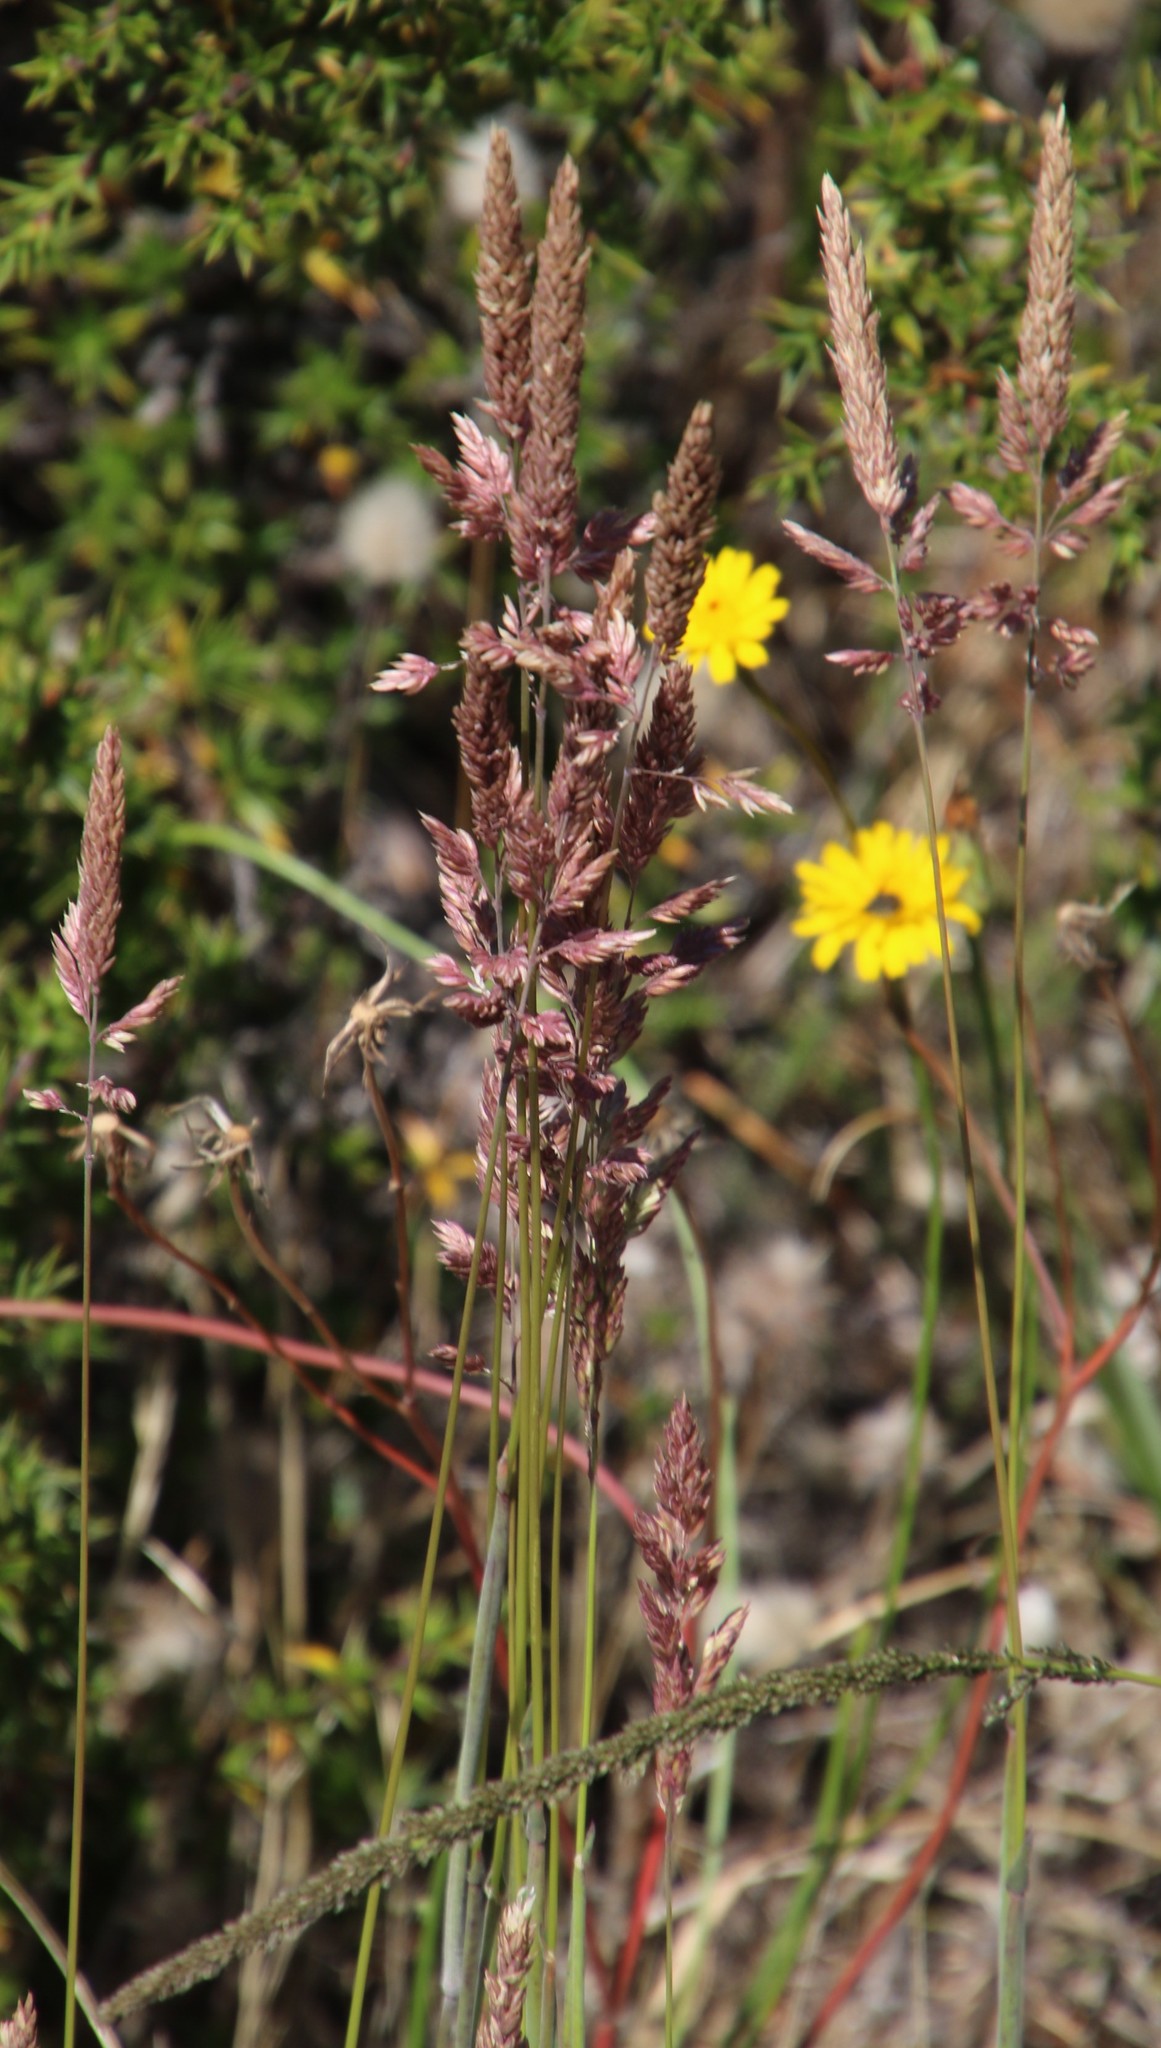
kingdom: Plantae
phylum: Tracheophyta
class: Liliopsida
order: Poales
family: Poaceae
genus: Festuca
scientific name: Festuca scabra
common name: Munnik fescue
